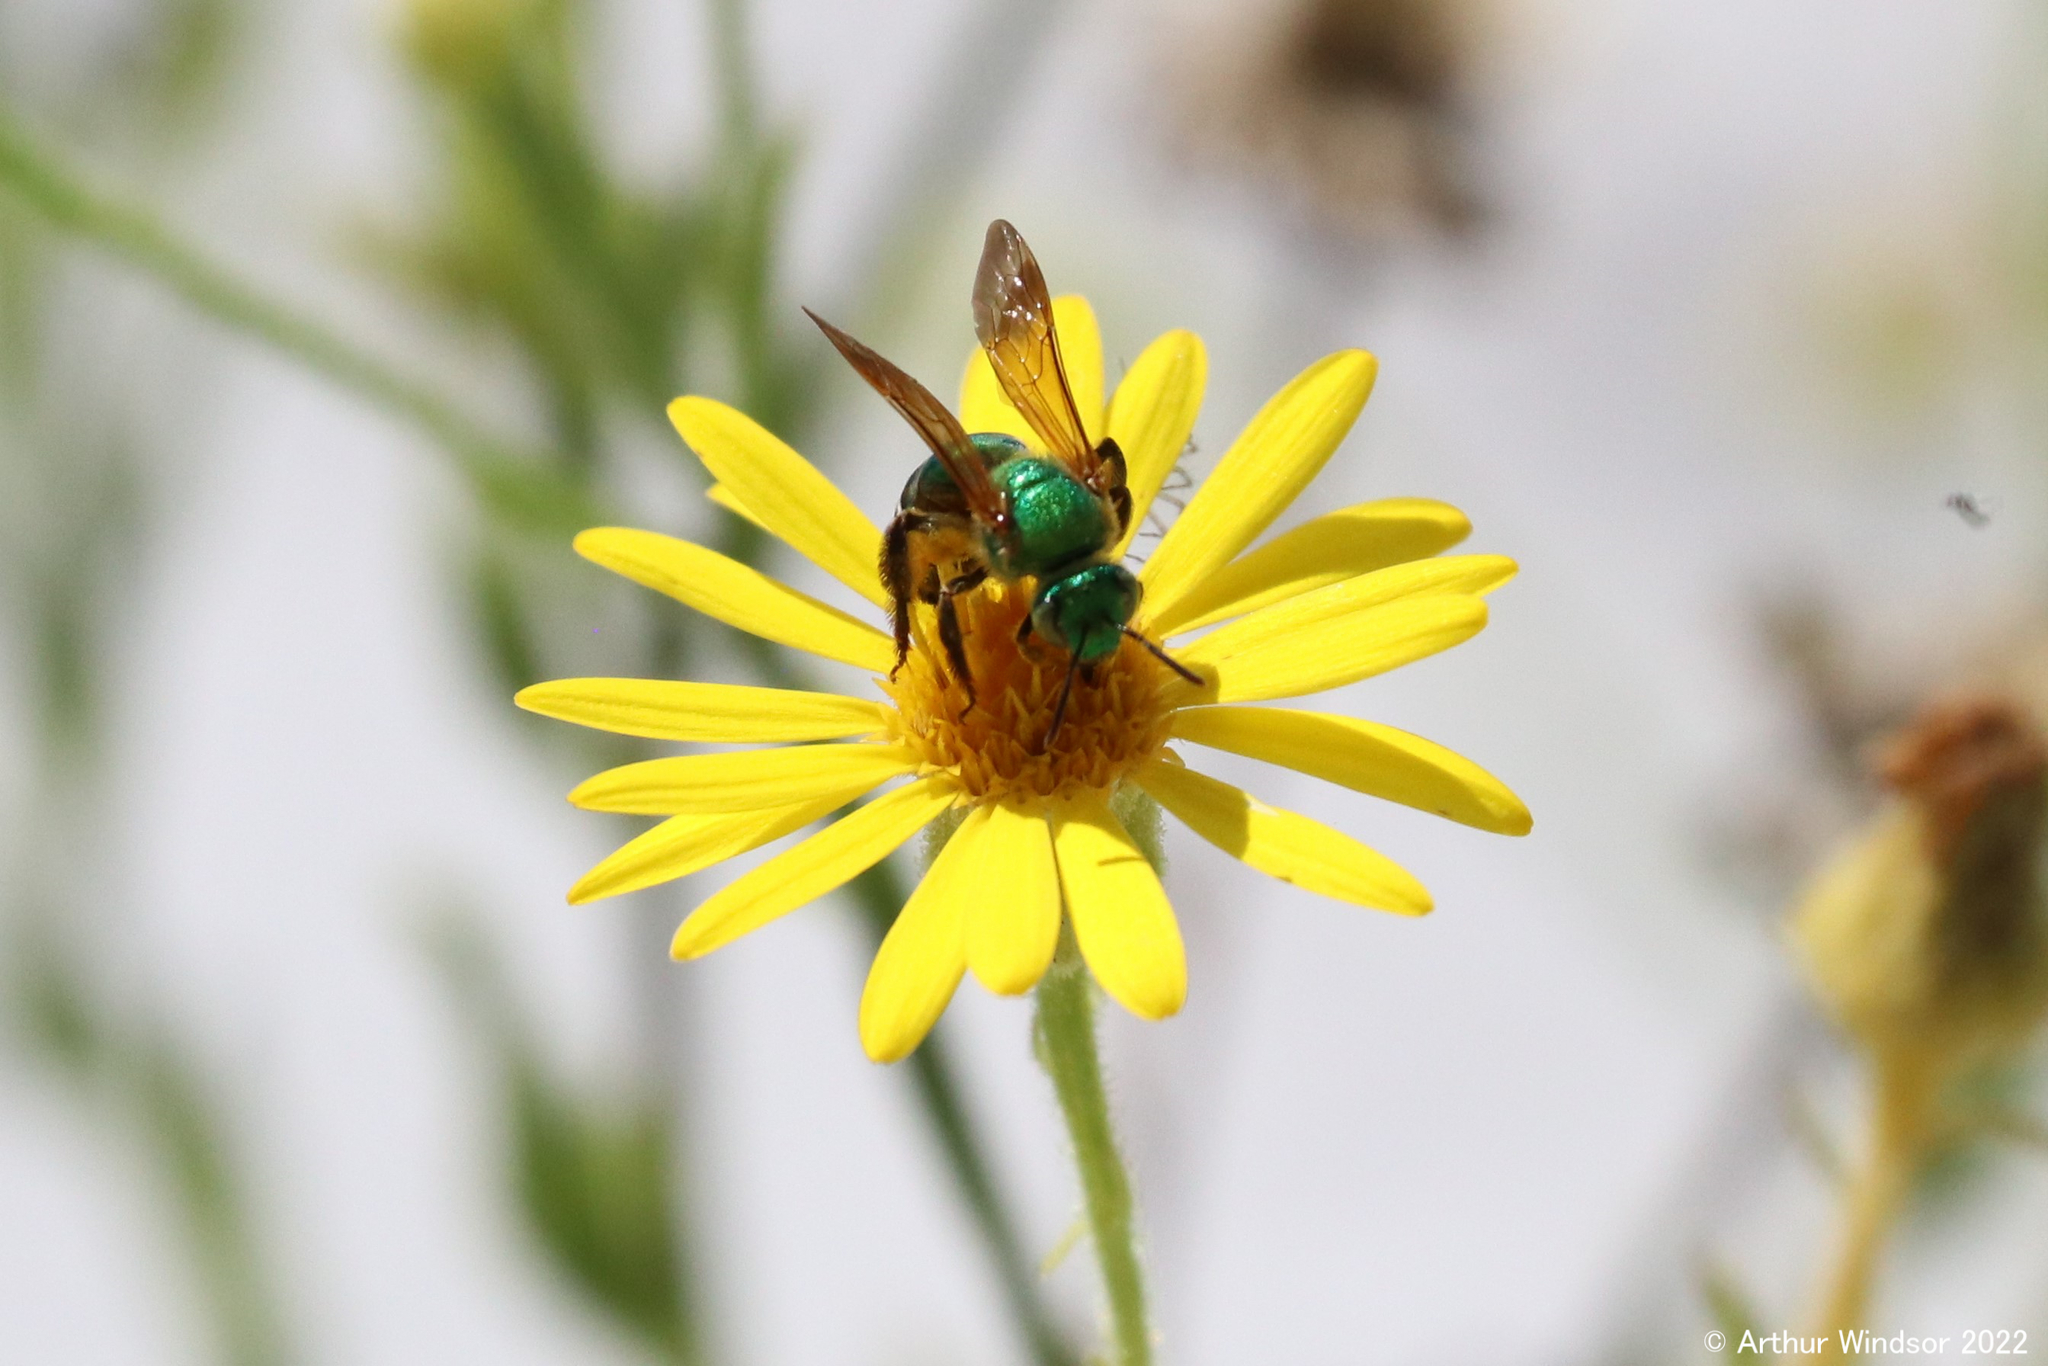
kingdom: Animalia
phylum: Arthropoda
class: Insecta
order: Hymenoptera
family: Halictidae
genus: Agapostemon
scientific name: Agapostemon splendens
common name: Brown-winged striped sweat bee
